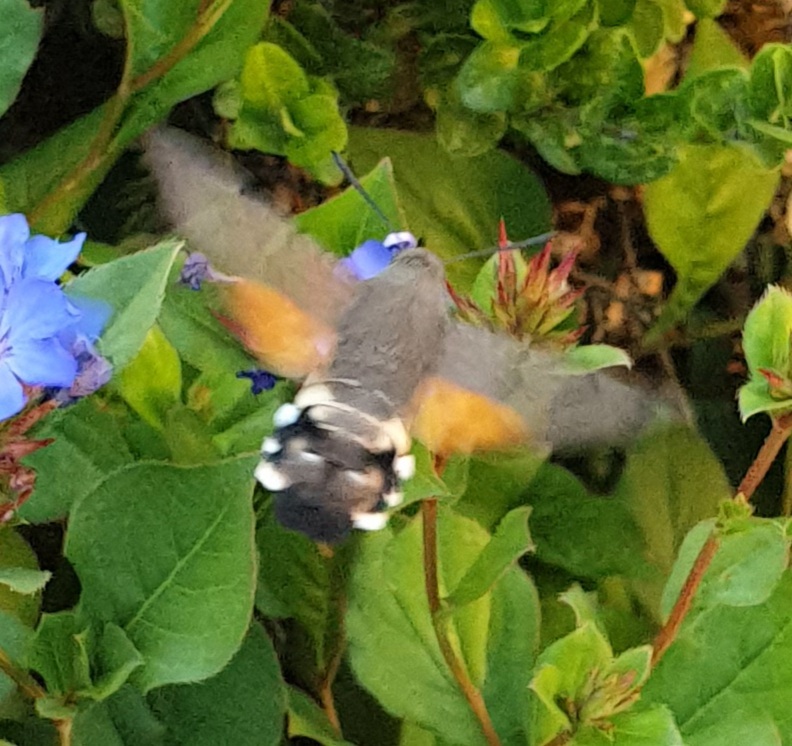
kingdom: Animalia
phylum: Arthropoda
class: Insecta
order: Lepidoptera
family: Sphingidae
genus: Macroglossum
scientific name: Macroglossum stellatarum
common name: Humming-bird hawk-moth
